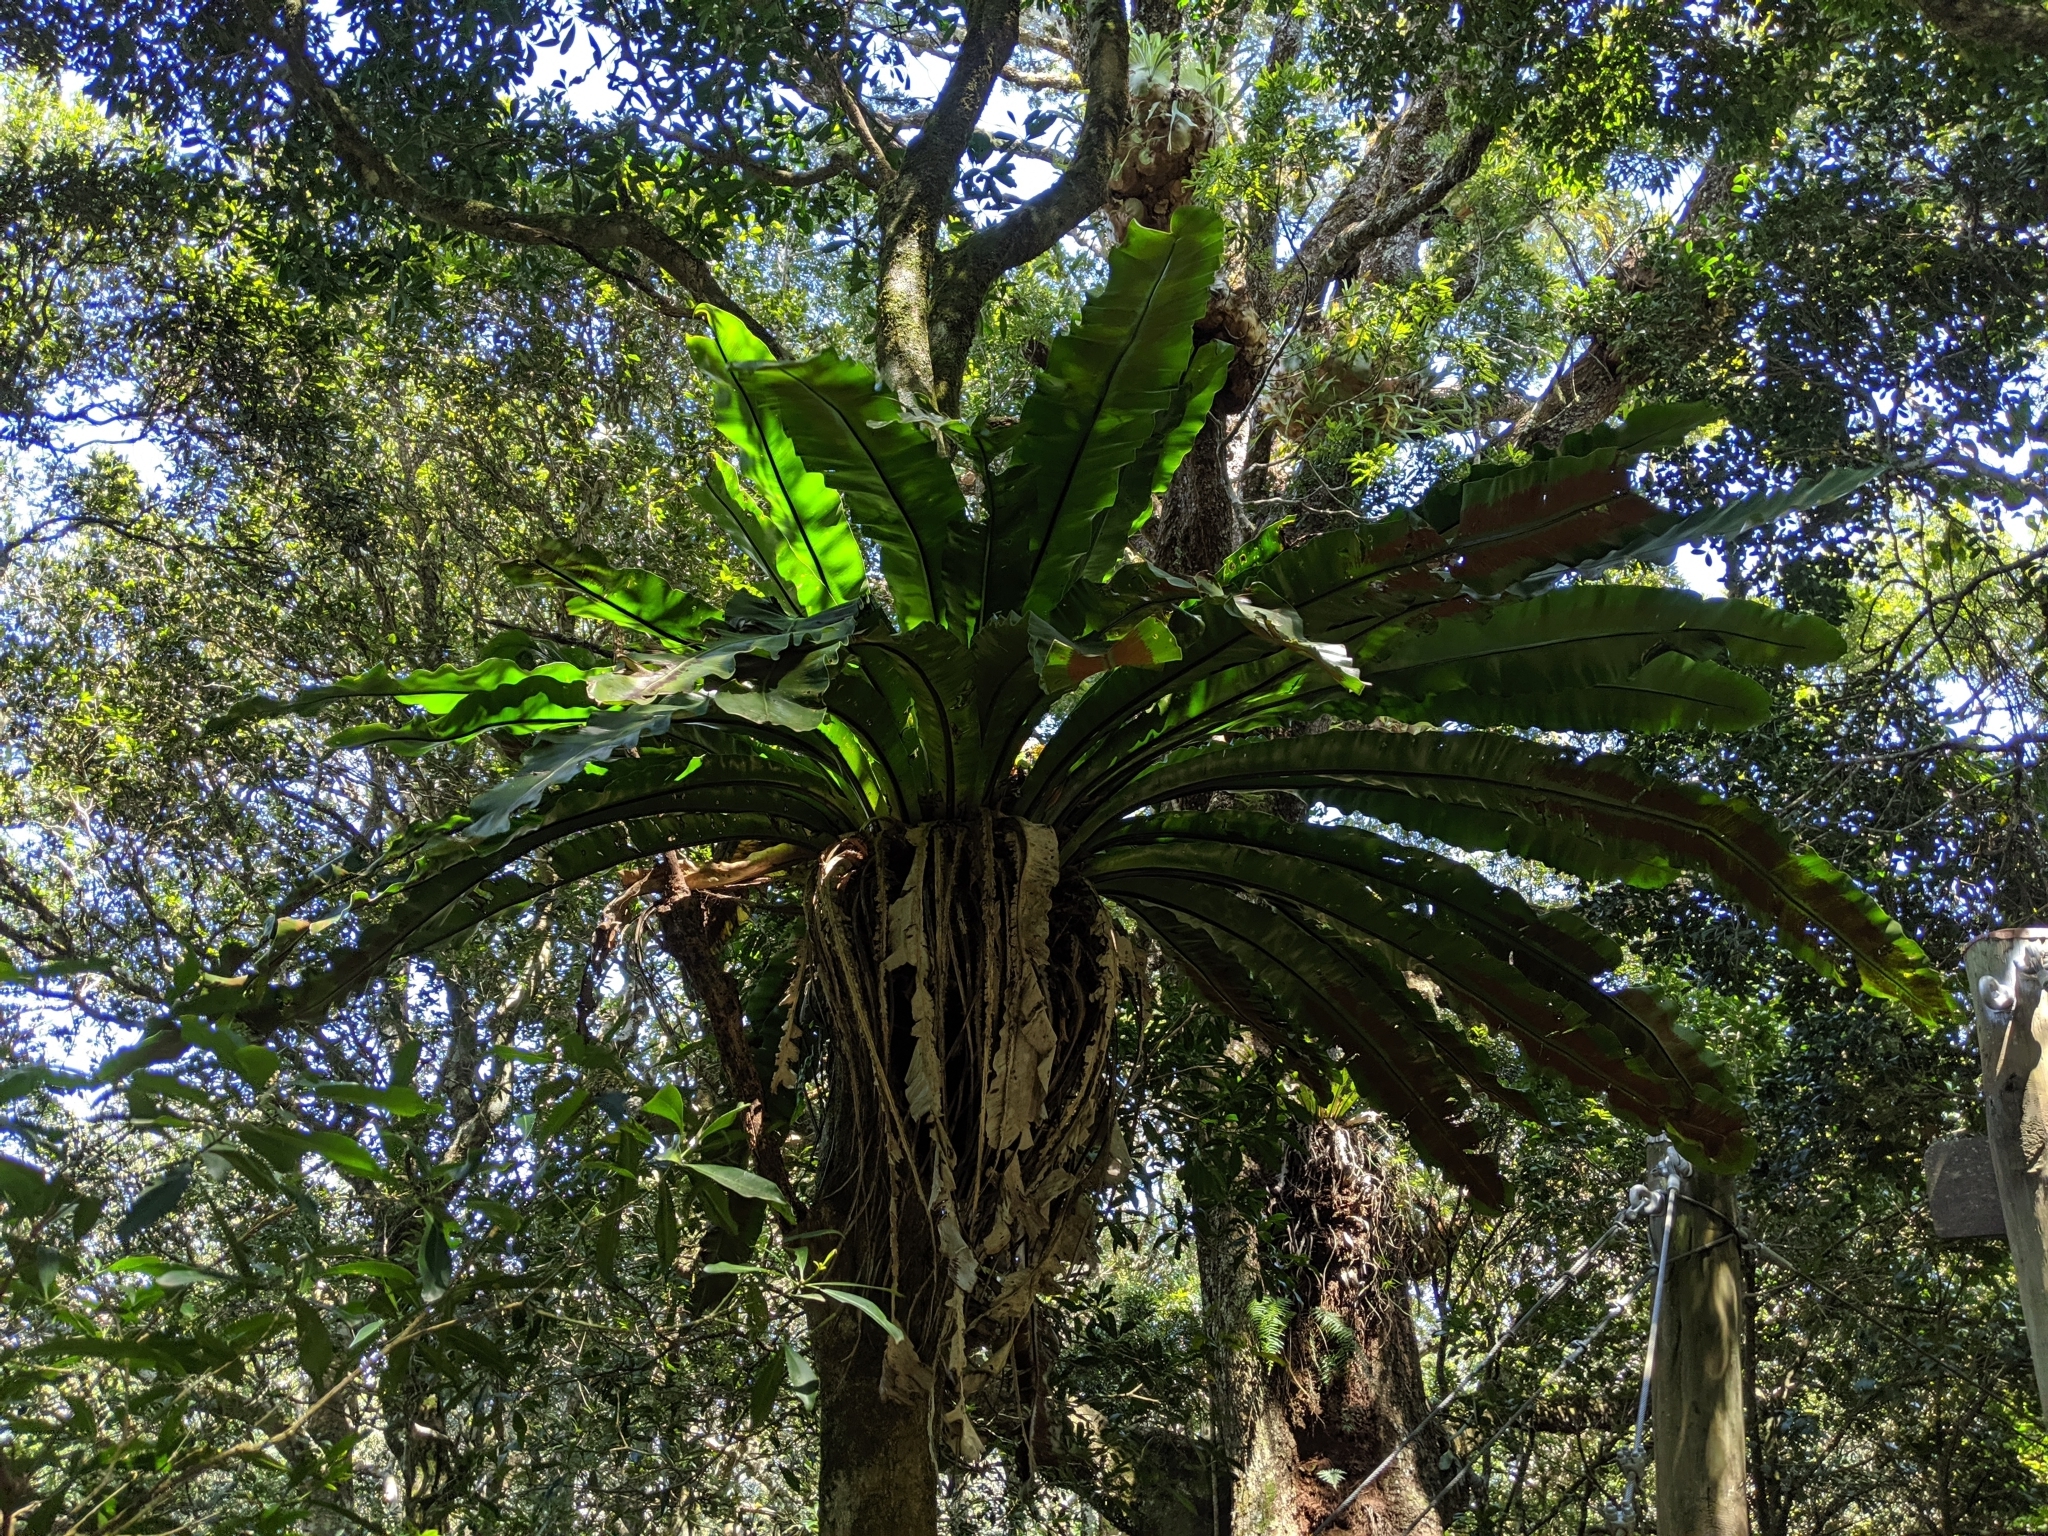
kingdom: Plantae
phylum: Tracheophyta
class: Polypodiopsida
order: Polypodiales
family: Aspleniaceae
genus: Asplenium
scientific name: Asplenium australasicum
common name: Bird's-nest fern
